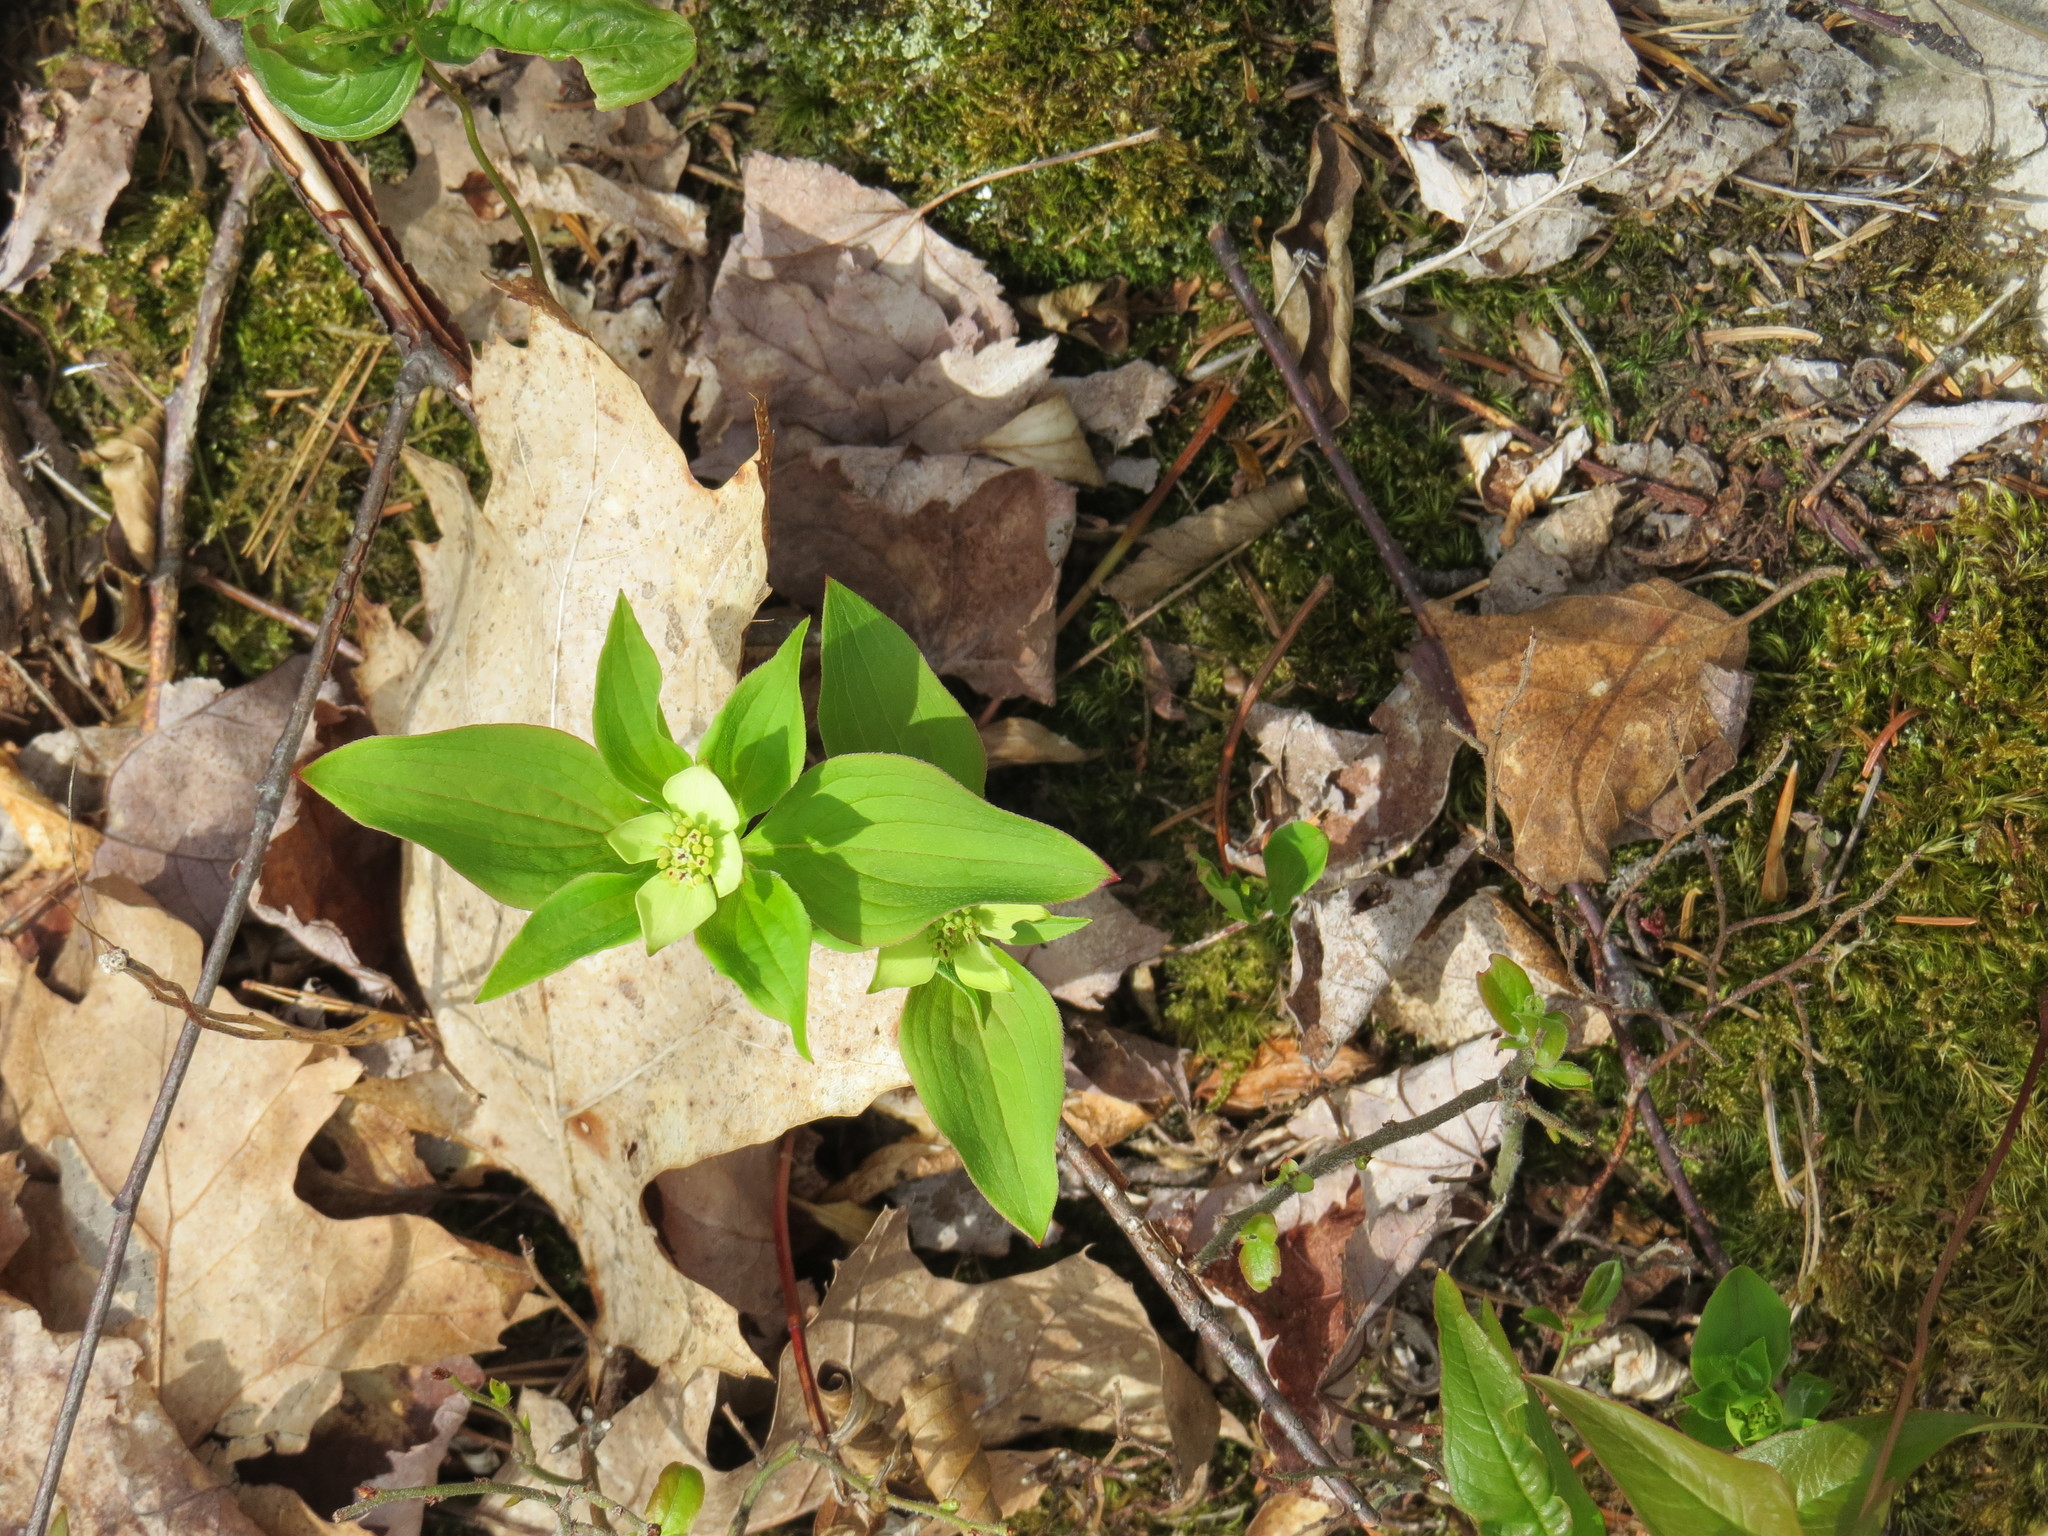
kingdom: Plantae
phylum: Tracheophyta
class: Magnoliopsida
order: Cornales
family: Cornaceae
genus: Cornus
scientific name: Cornus canadensis
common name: Creeping dogwood
